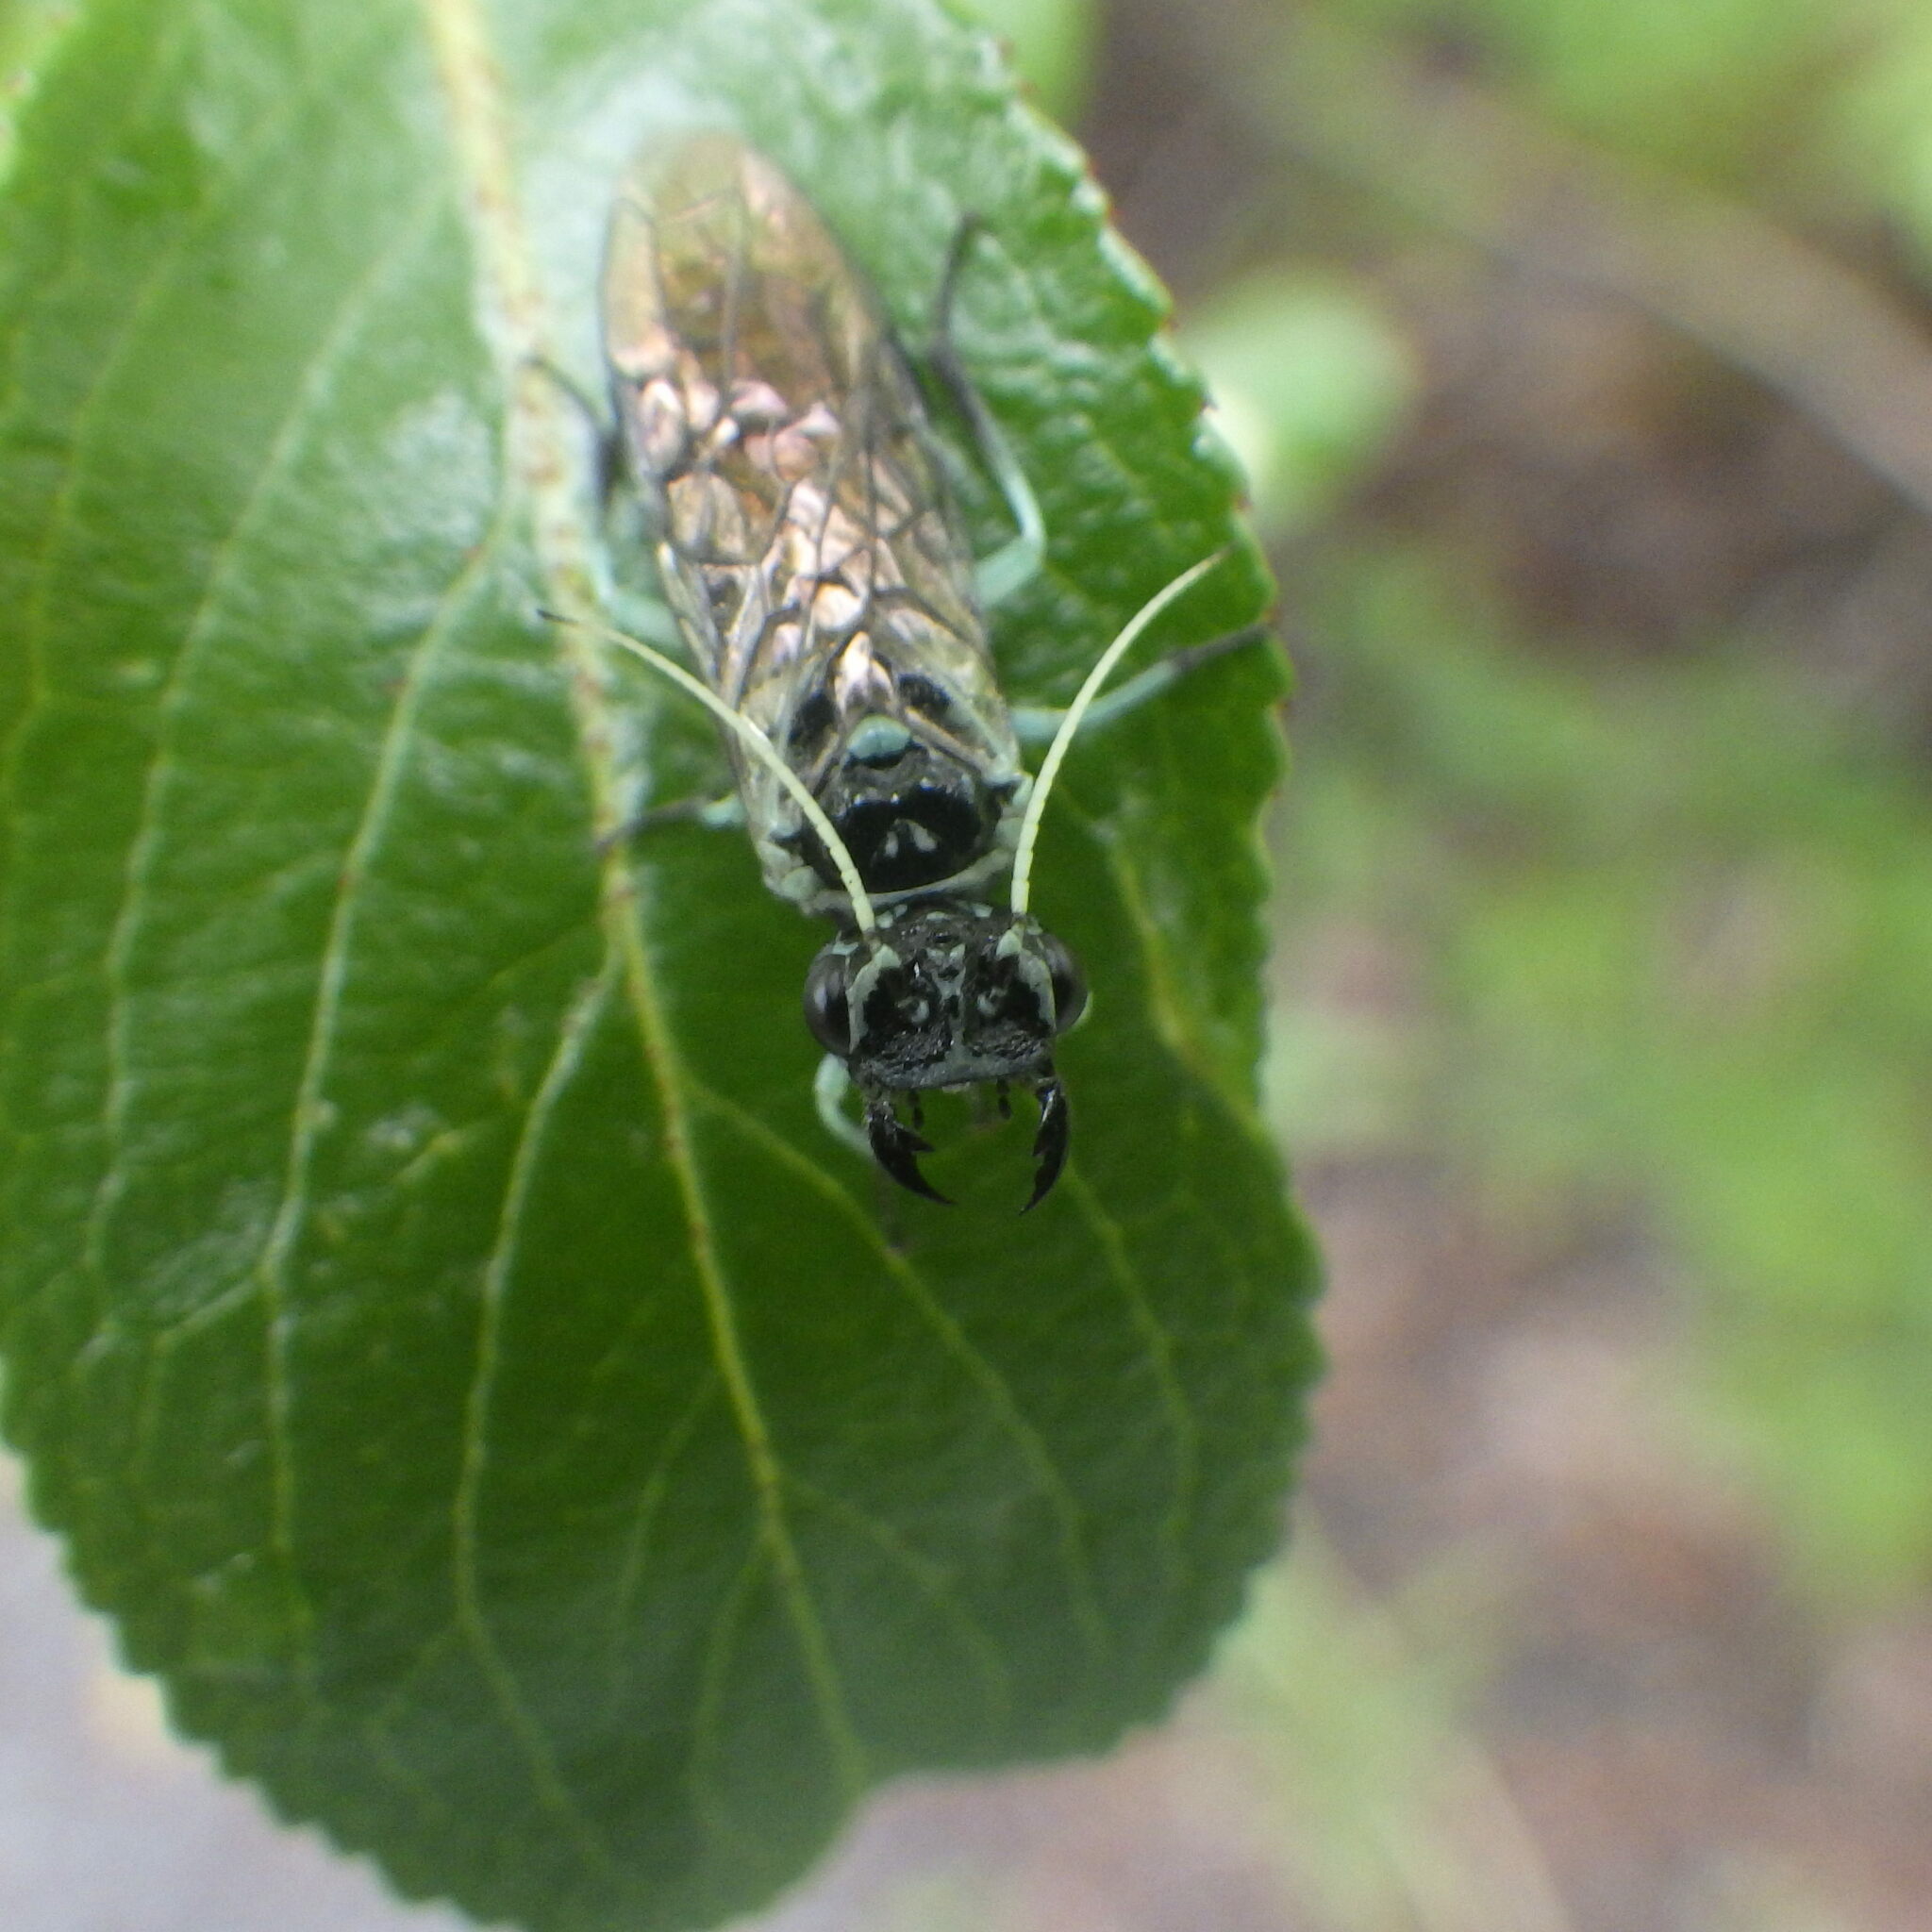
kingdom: Animalia
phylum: Arthropoda
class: Insecta
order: Hymenoptera
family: Pamphiliidae
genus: Pamphilius
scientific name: Pamphilius
